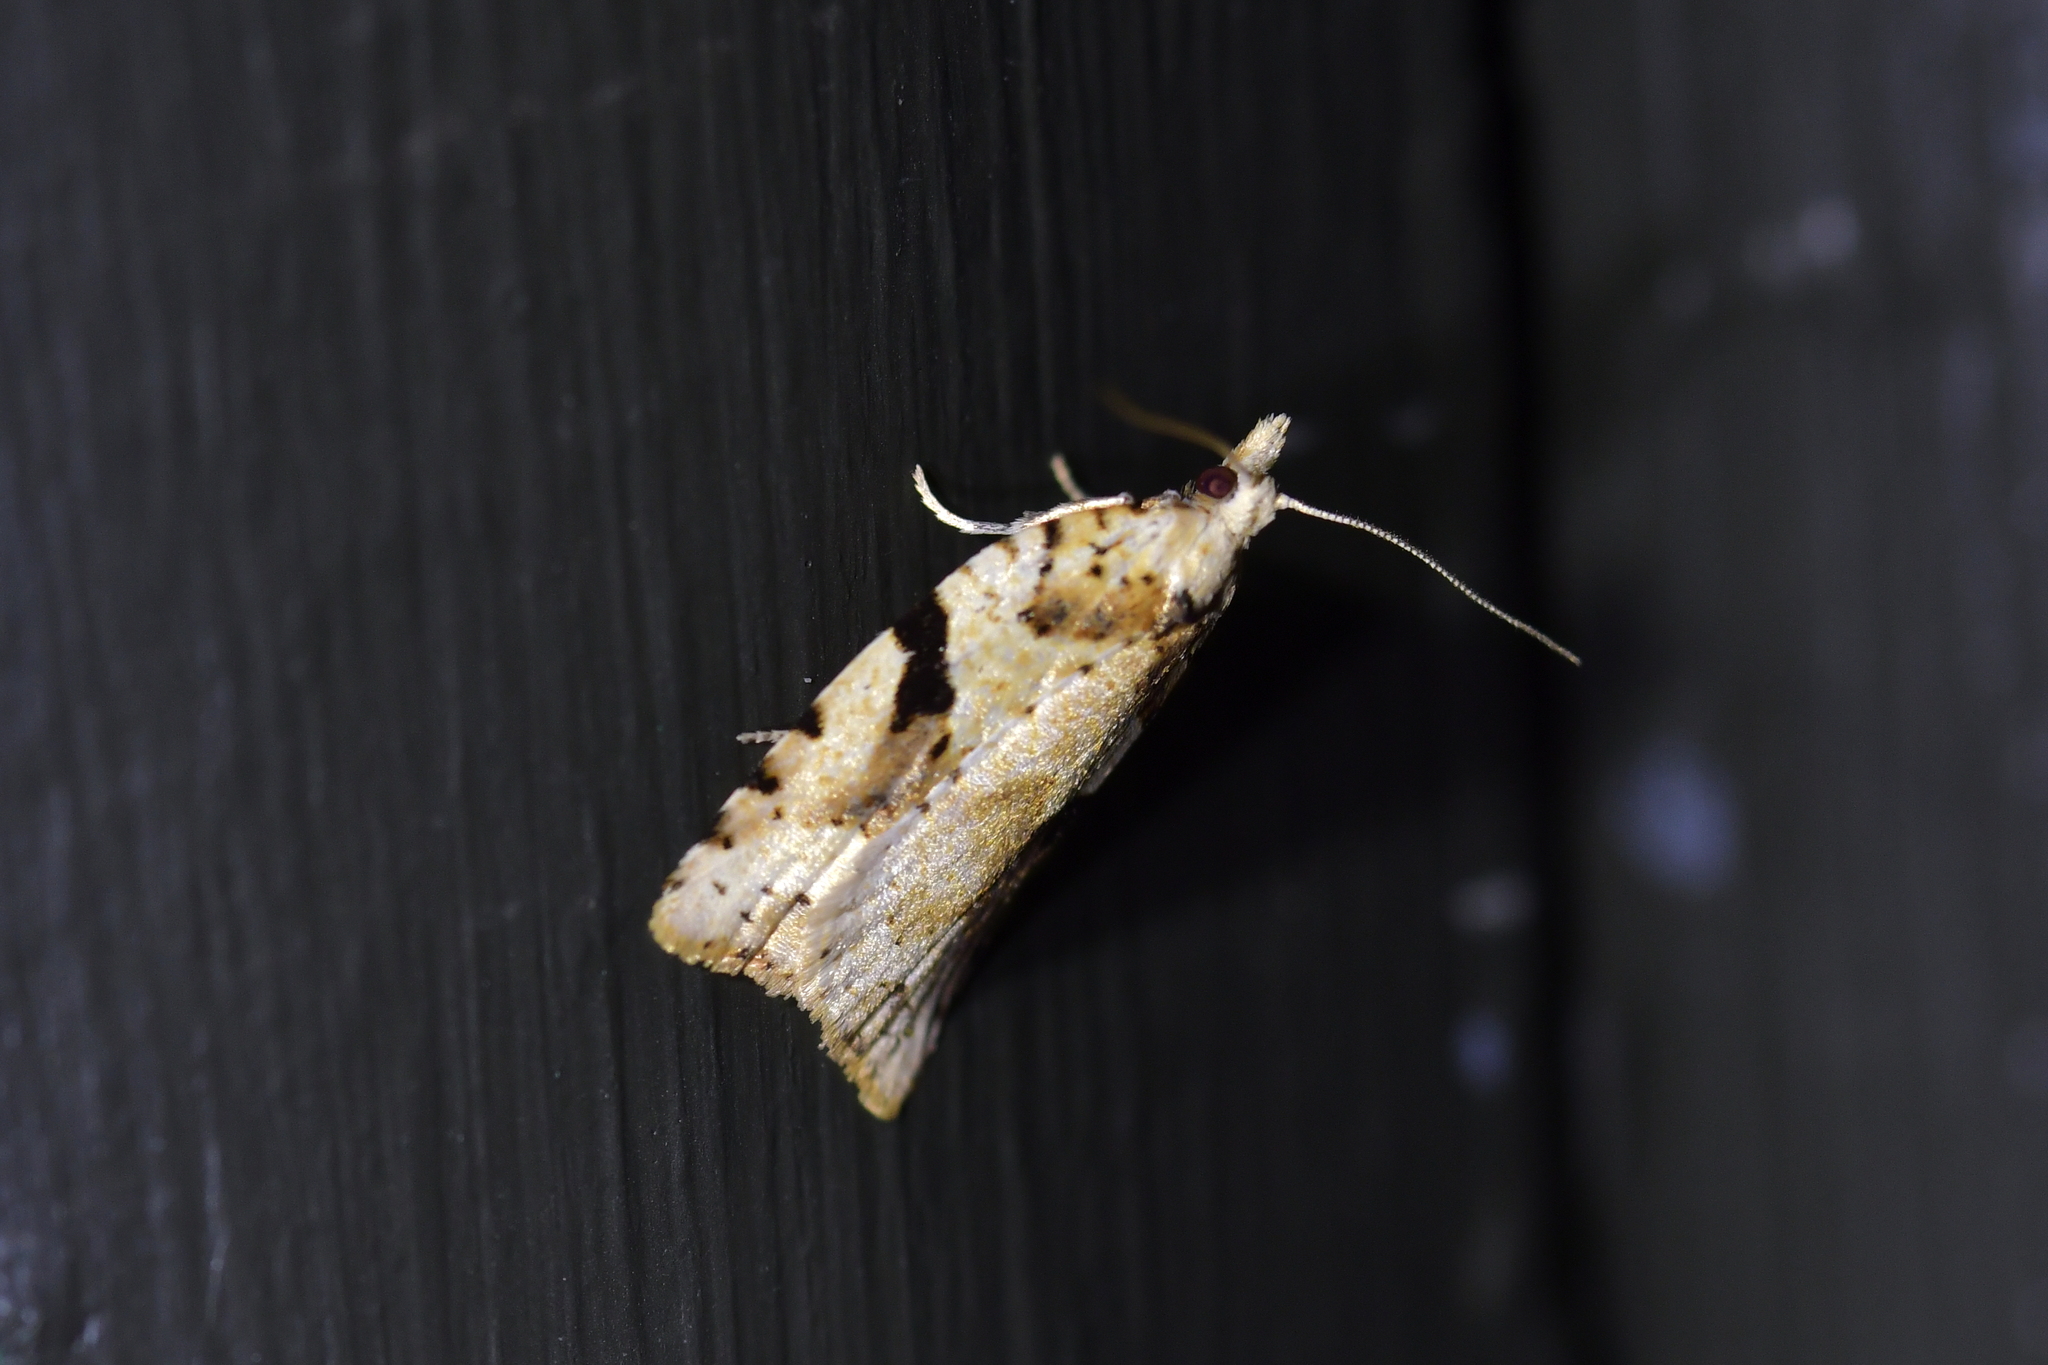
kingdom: Animalia
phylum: Arthropoda
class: Insecta
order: Lepidoptera
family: Tortricidae
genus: Leucotenes
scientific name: Leucotenes coprosmae
